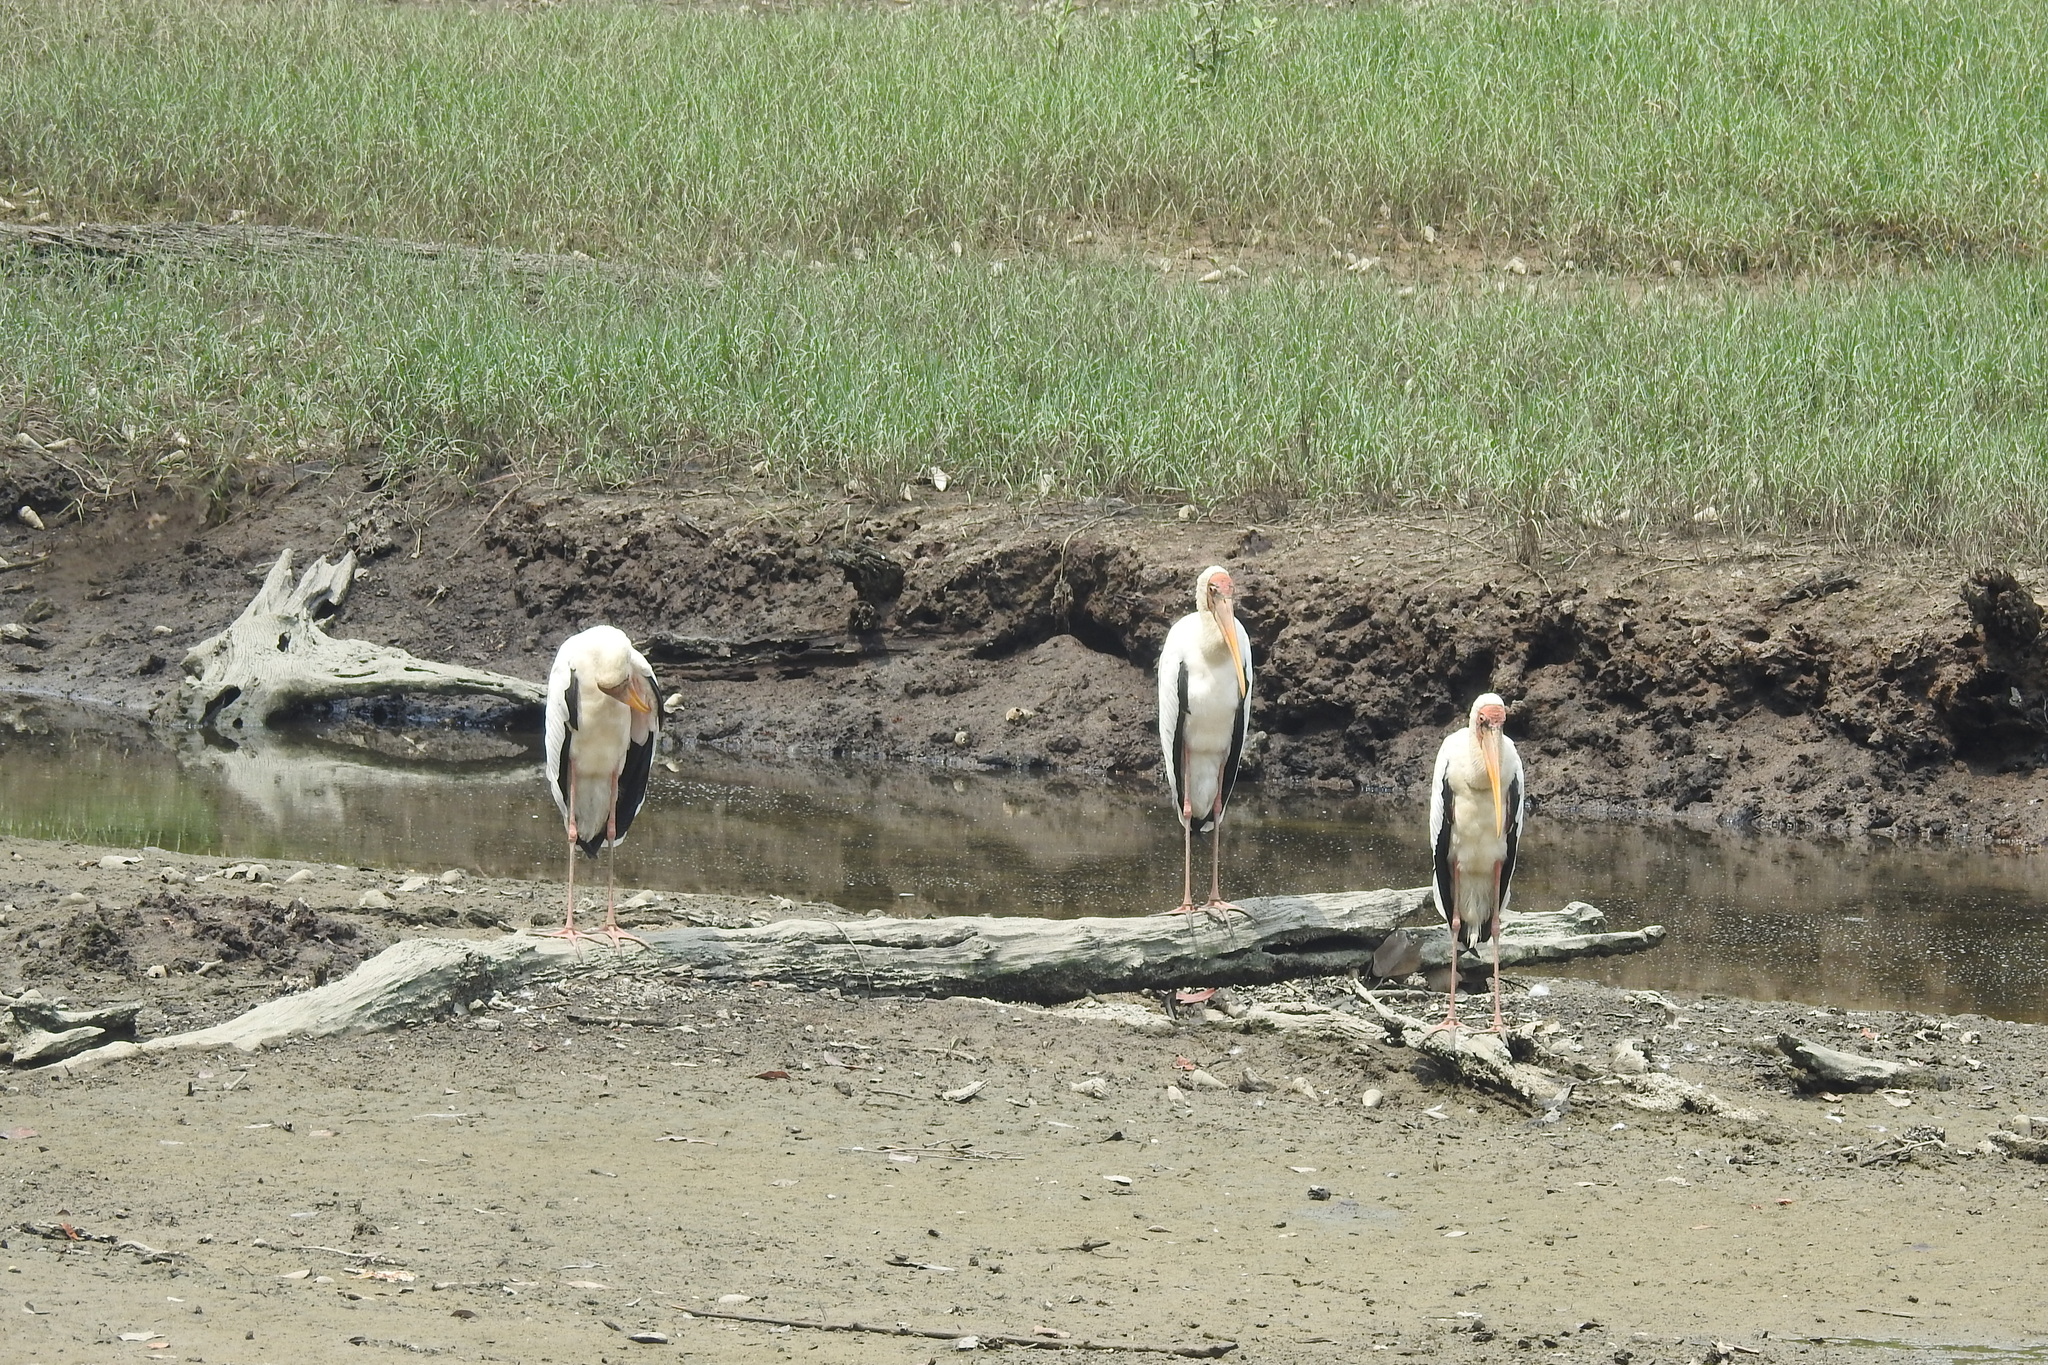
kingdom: Animalia
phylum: Chordata
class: Aves
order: Ciconiiformes
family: Ciconiidae
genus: Mycteria
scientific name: Mycteria cinerea
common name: Milky stork
